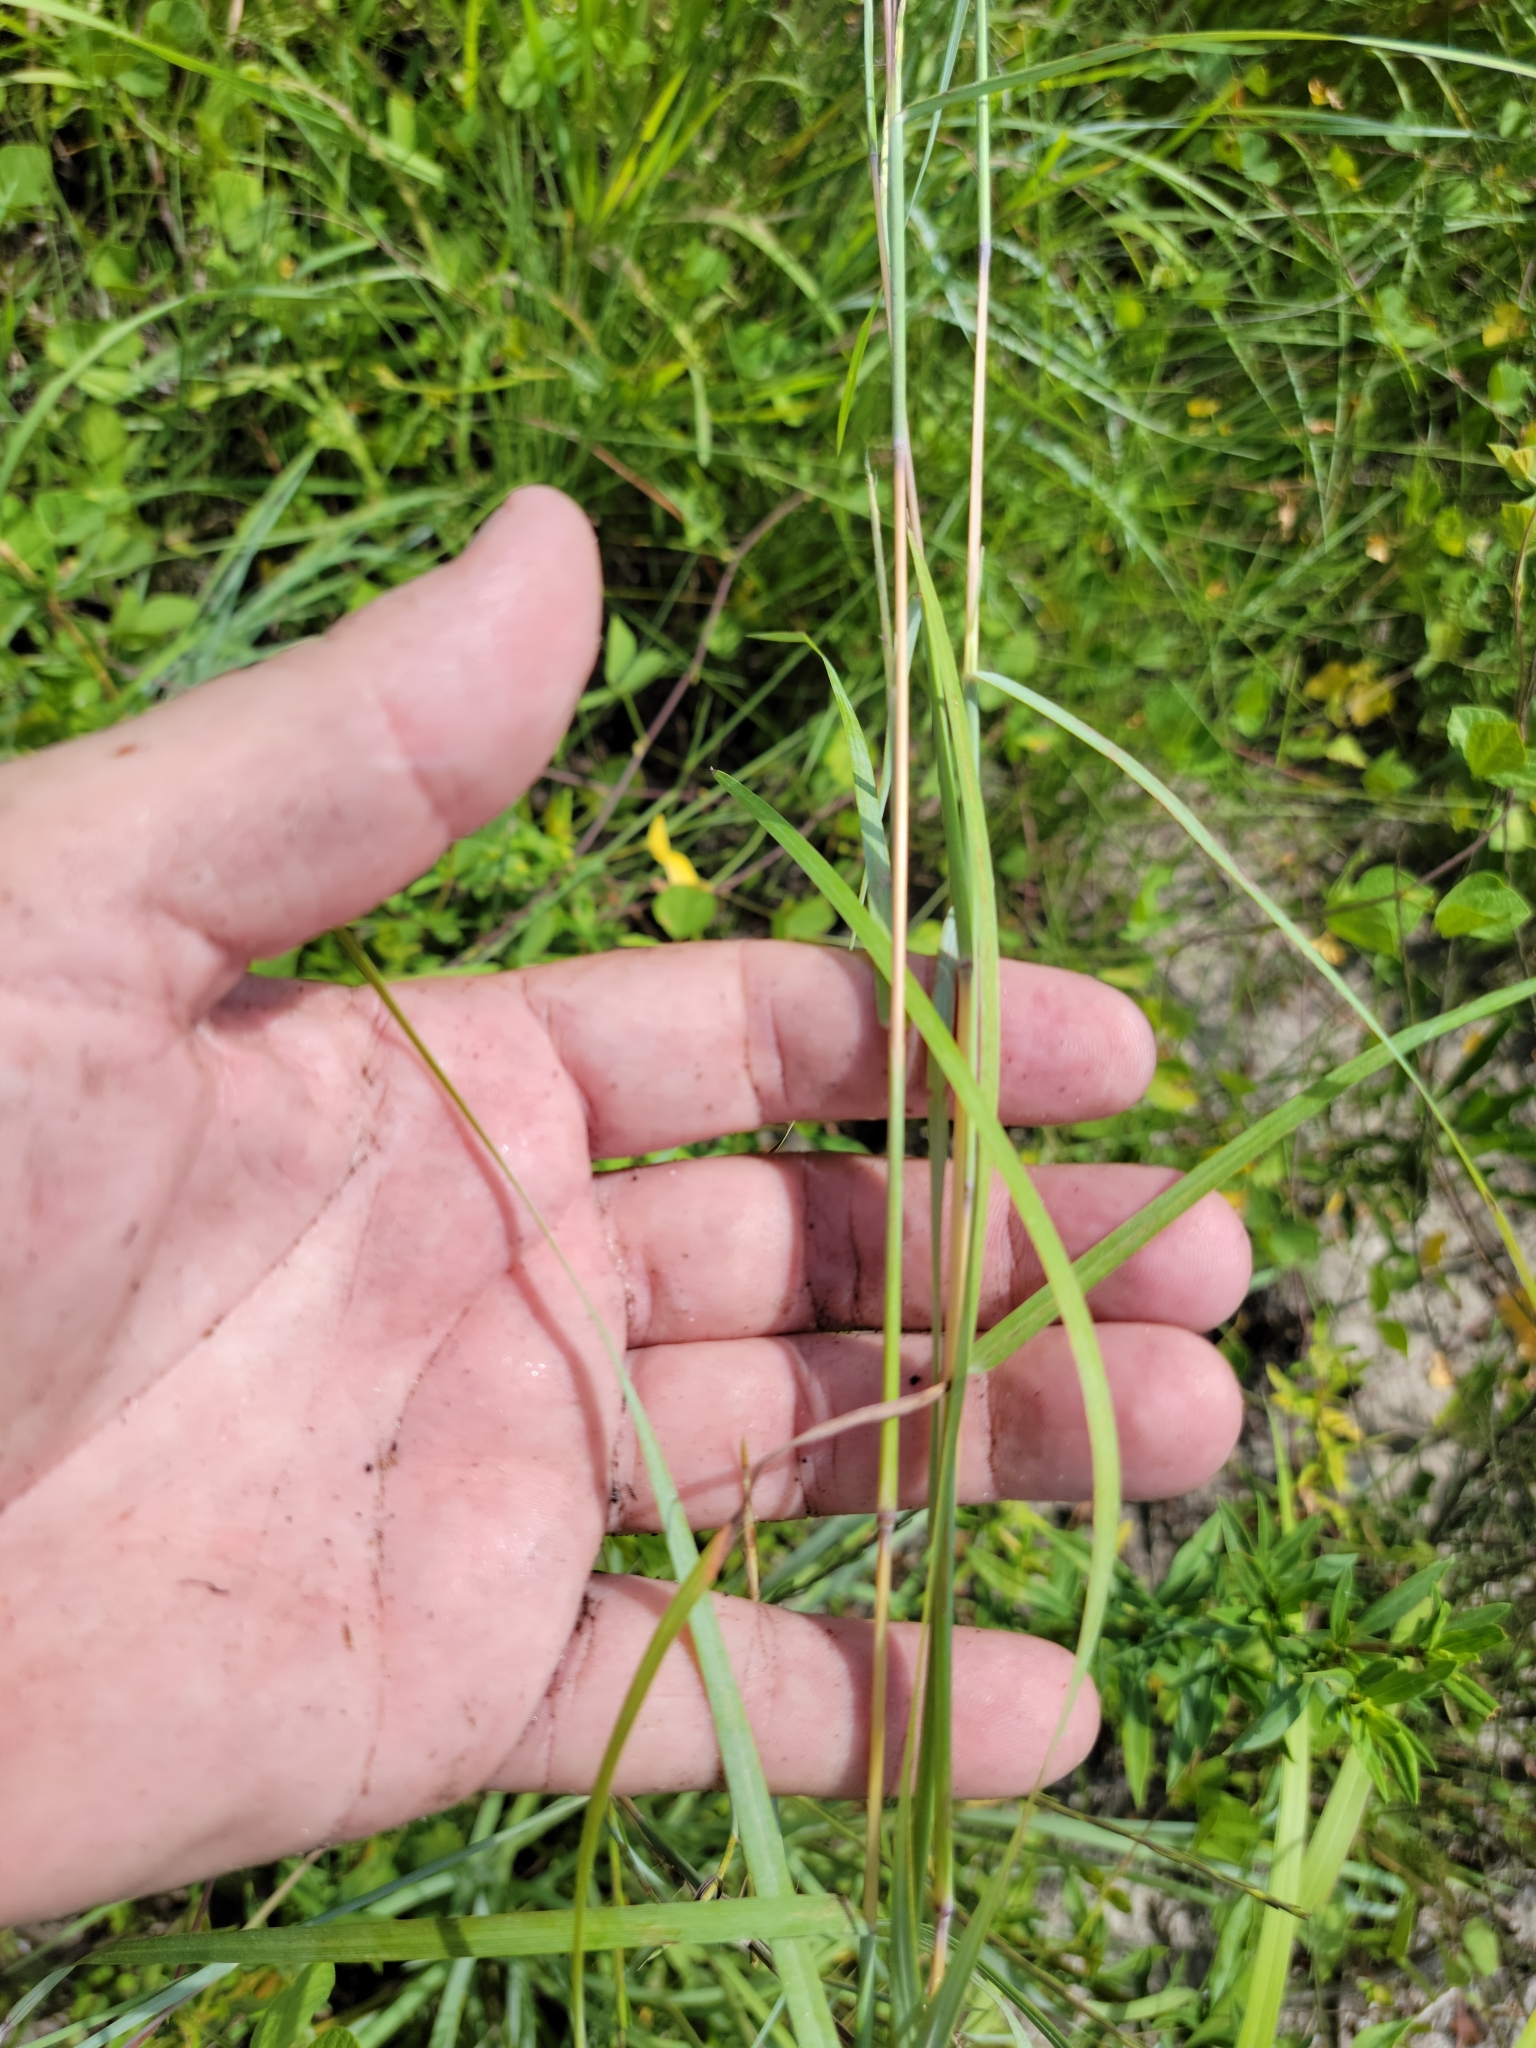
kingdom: Plantae
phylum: Tracheophyta
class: Liliopsida
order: Poales
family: Poaceae
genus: Schizachyrium
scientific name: Schizachyrium sanguineum
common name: Crimson bluestem
